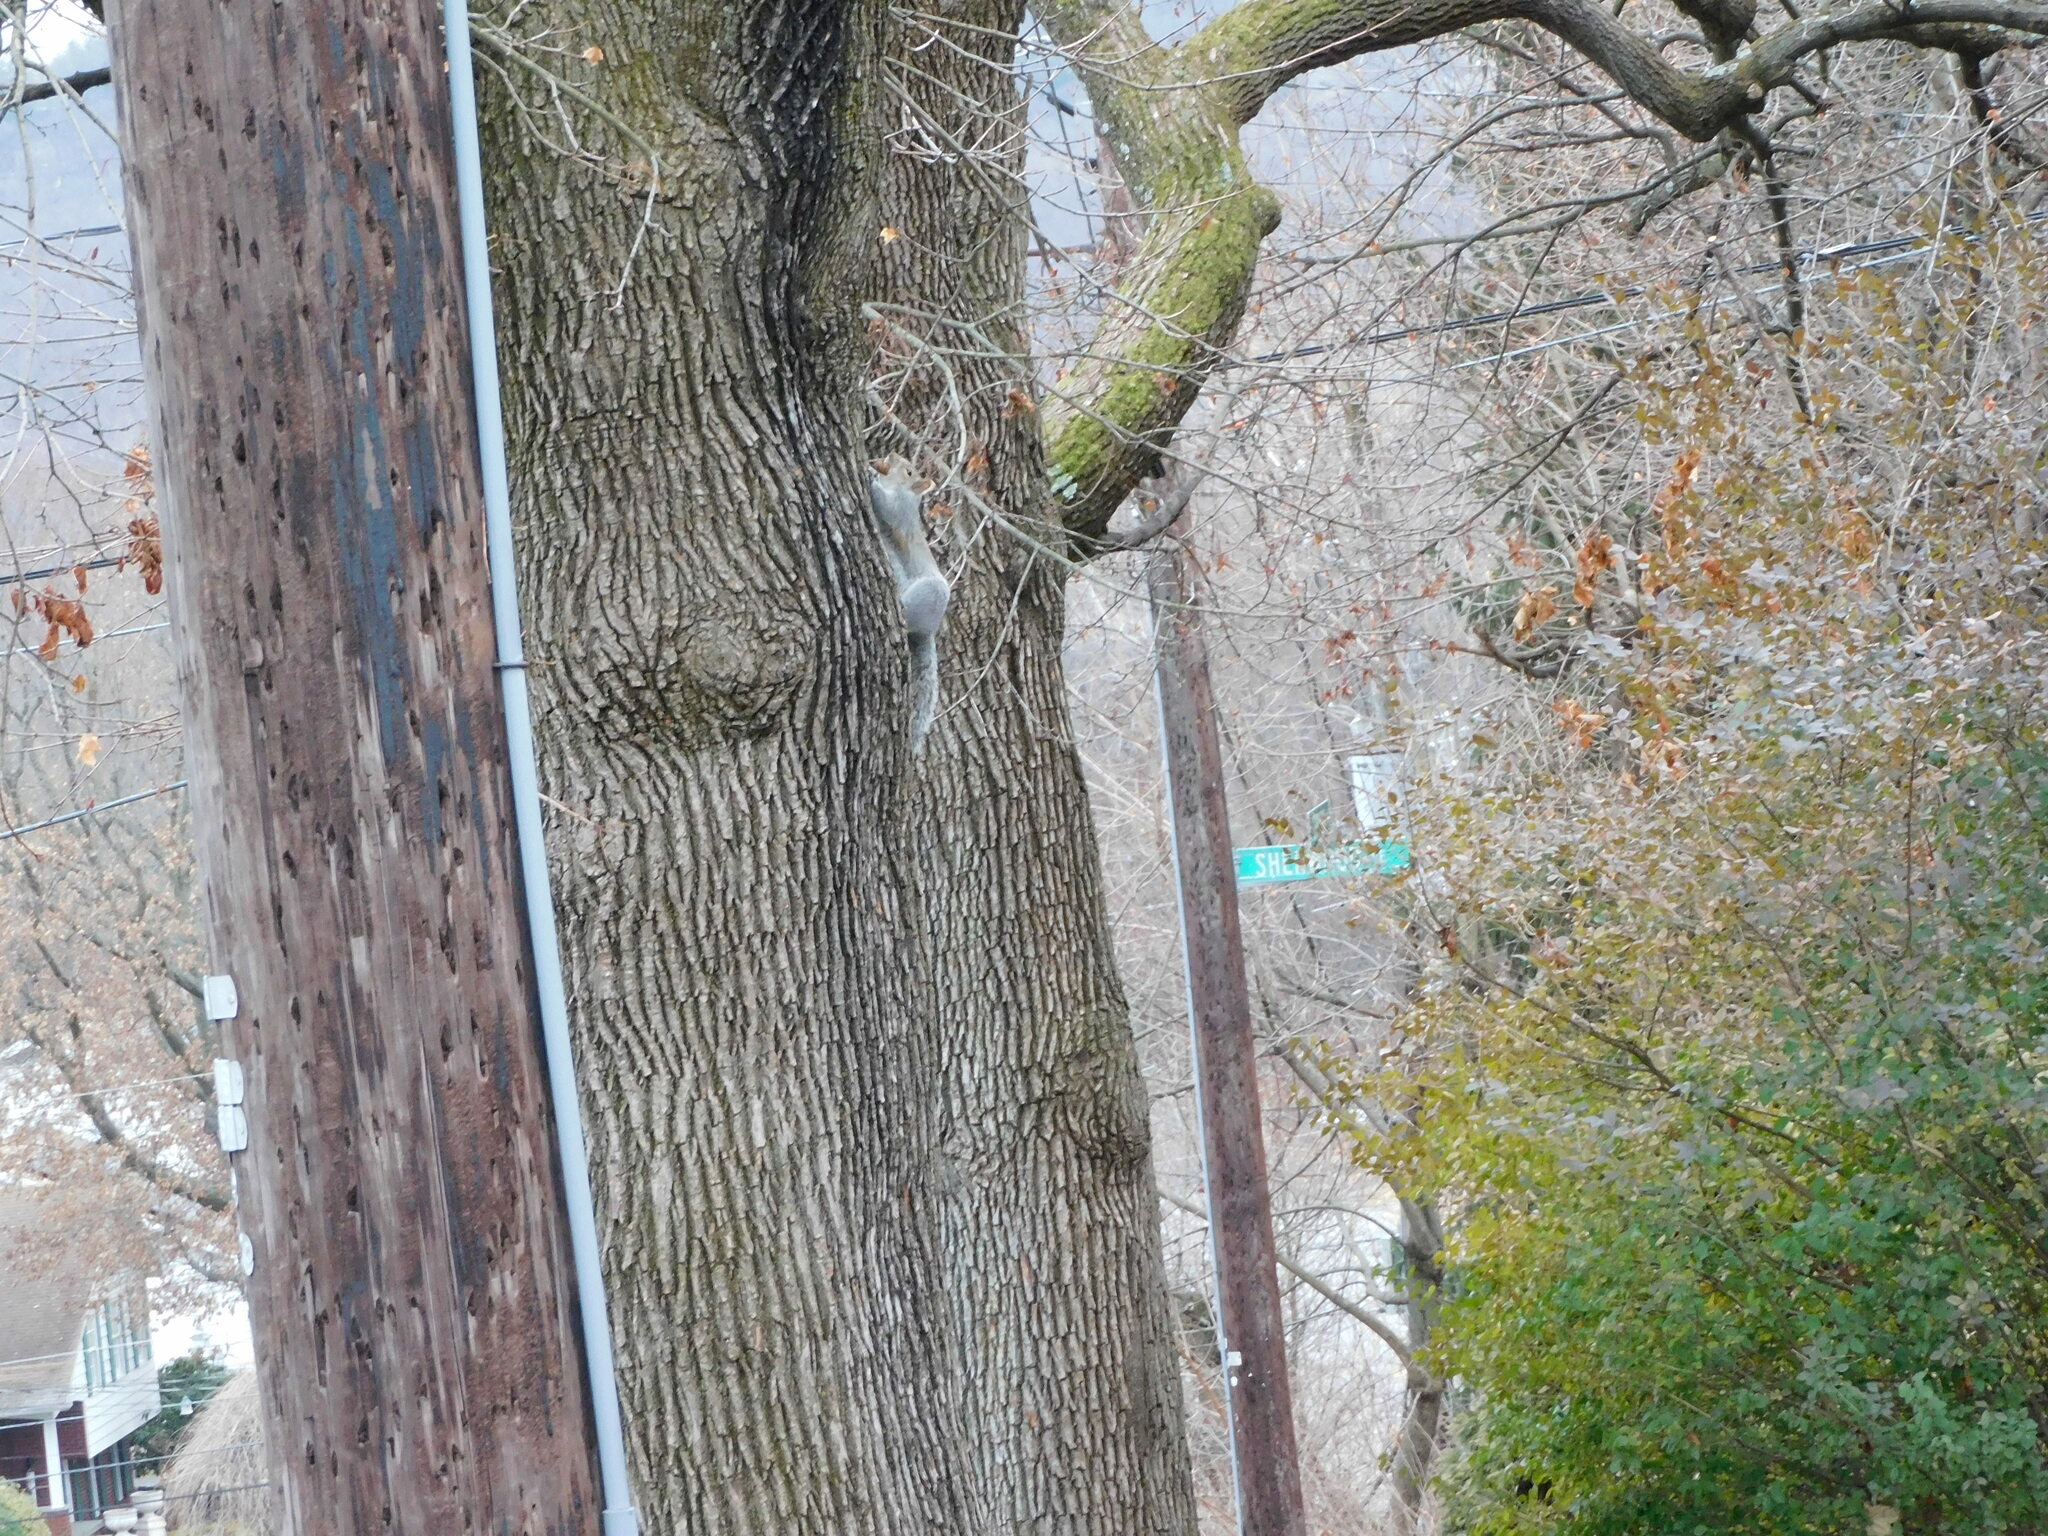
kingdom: Animalia
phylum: Chordata
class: Mammalia
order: Rodentia
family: Sciuridae
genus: Sciurus
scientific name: Sciurus carolinensis
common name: Eastern gray squirrel
